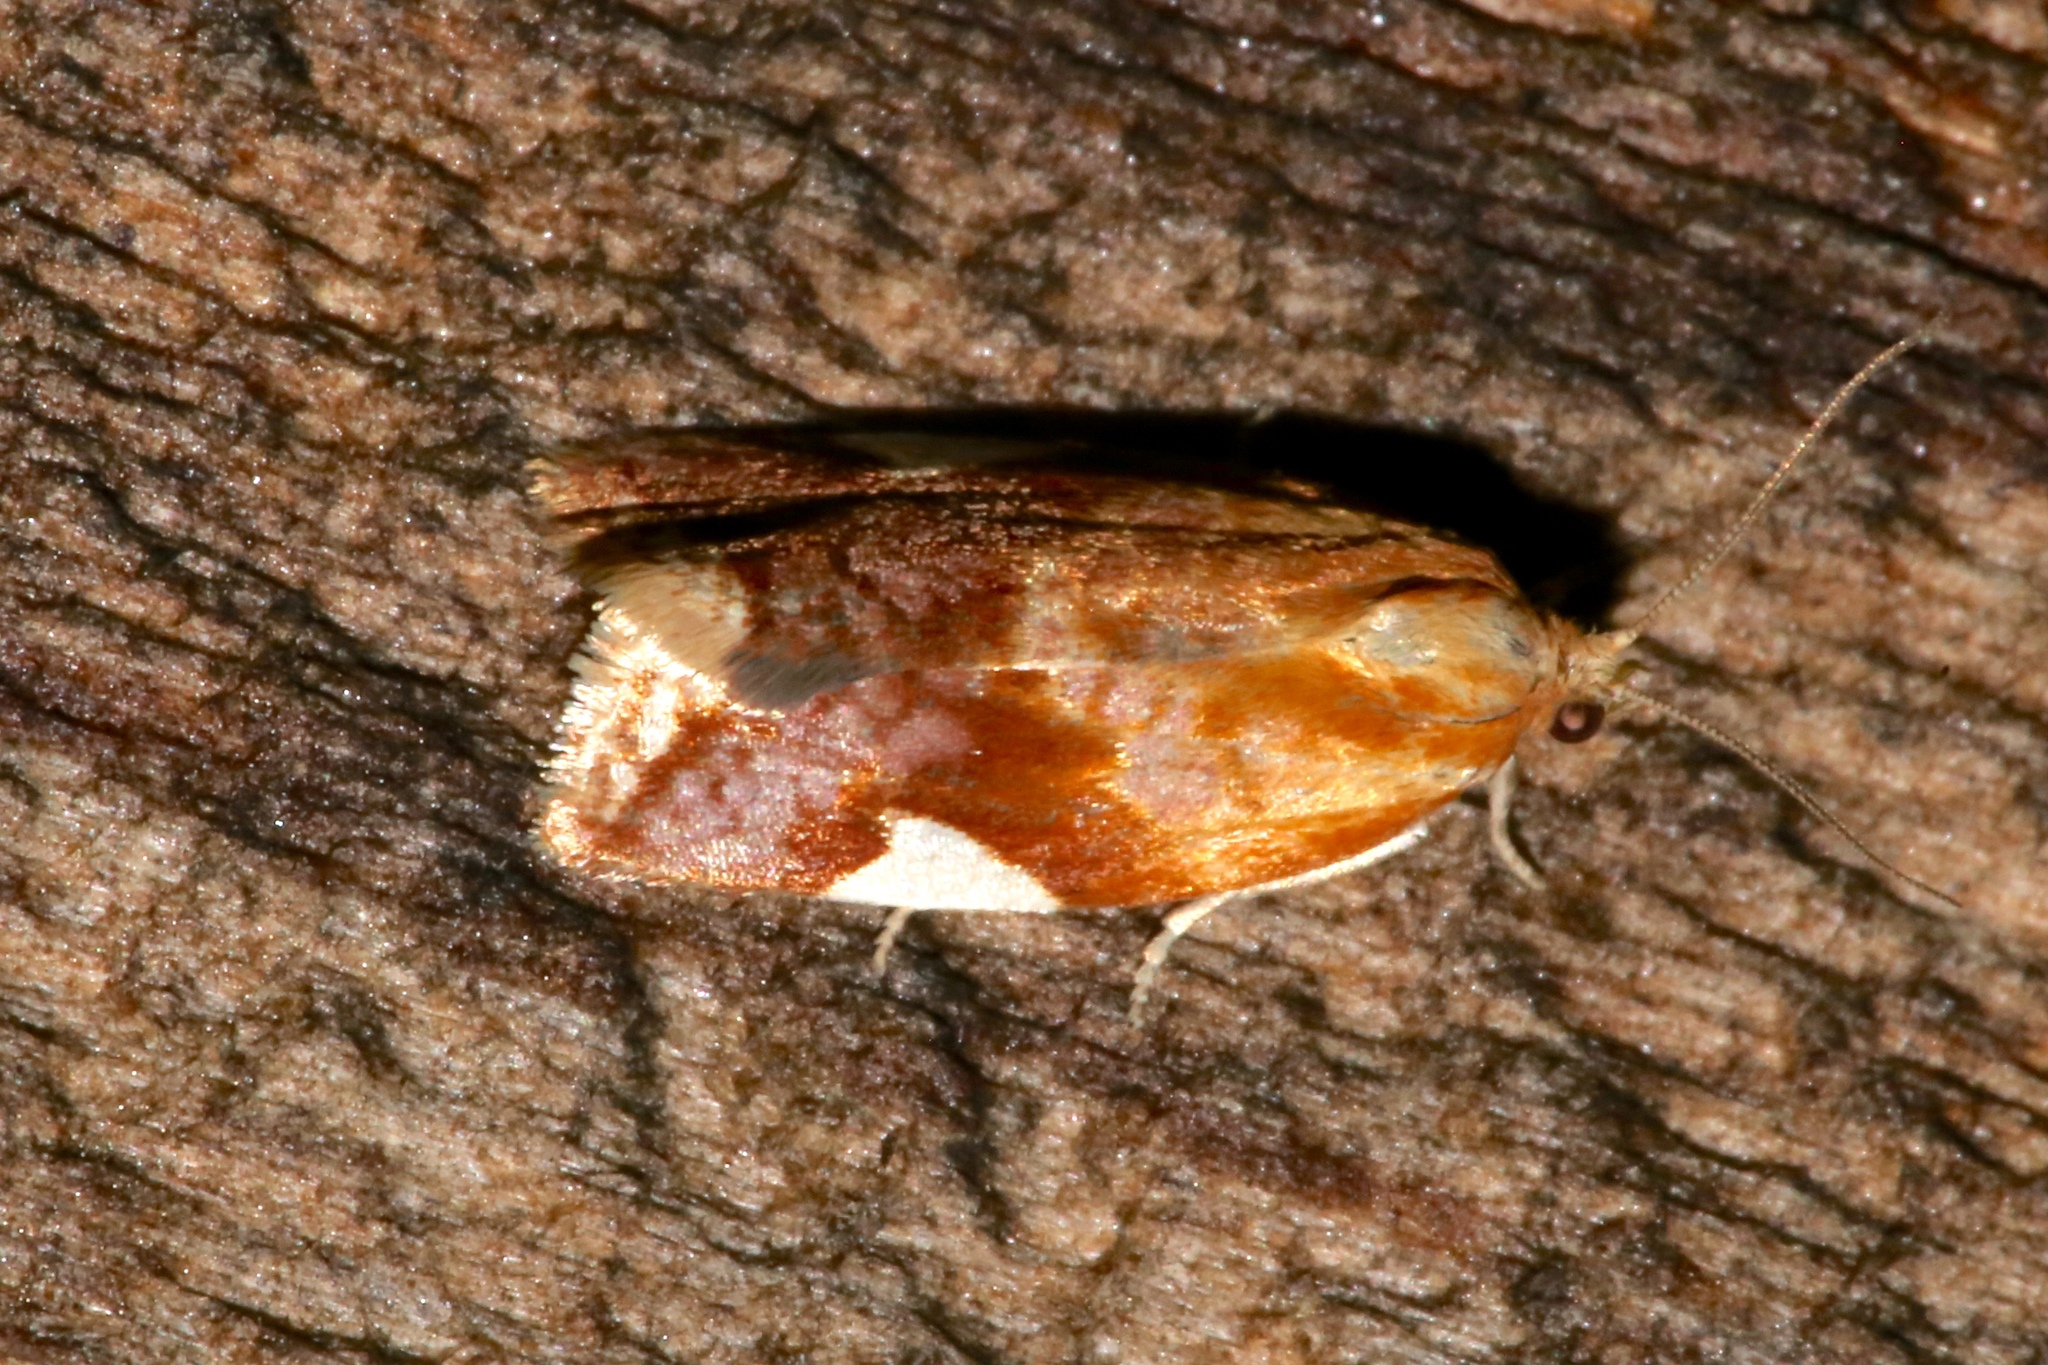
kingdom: Animalia
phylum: Arthropoda
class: Insecta
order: Lepidoptera
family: Tortricidae
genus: Clepsis
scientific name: Clepsis persicana
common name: White triangle tortrix
